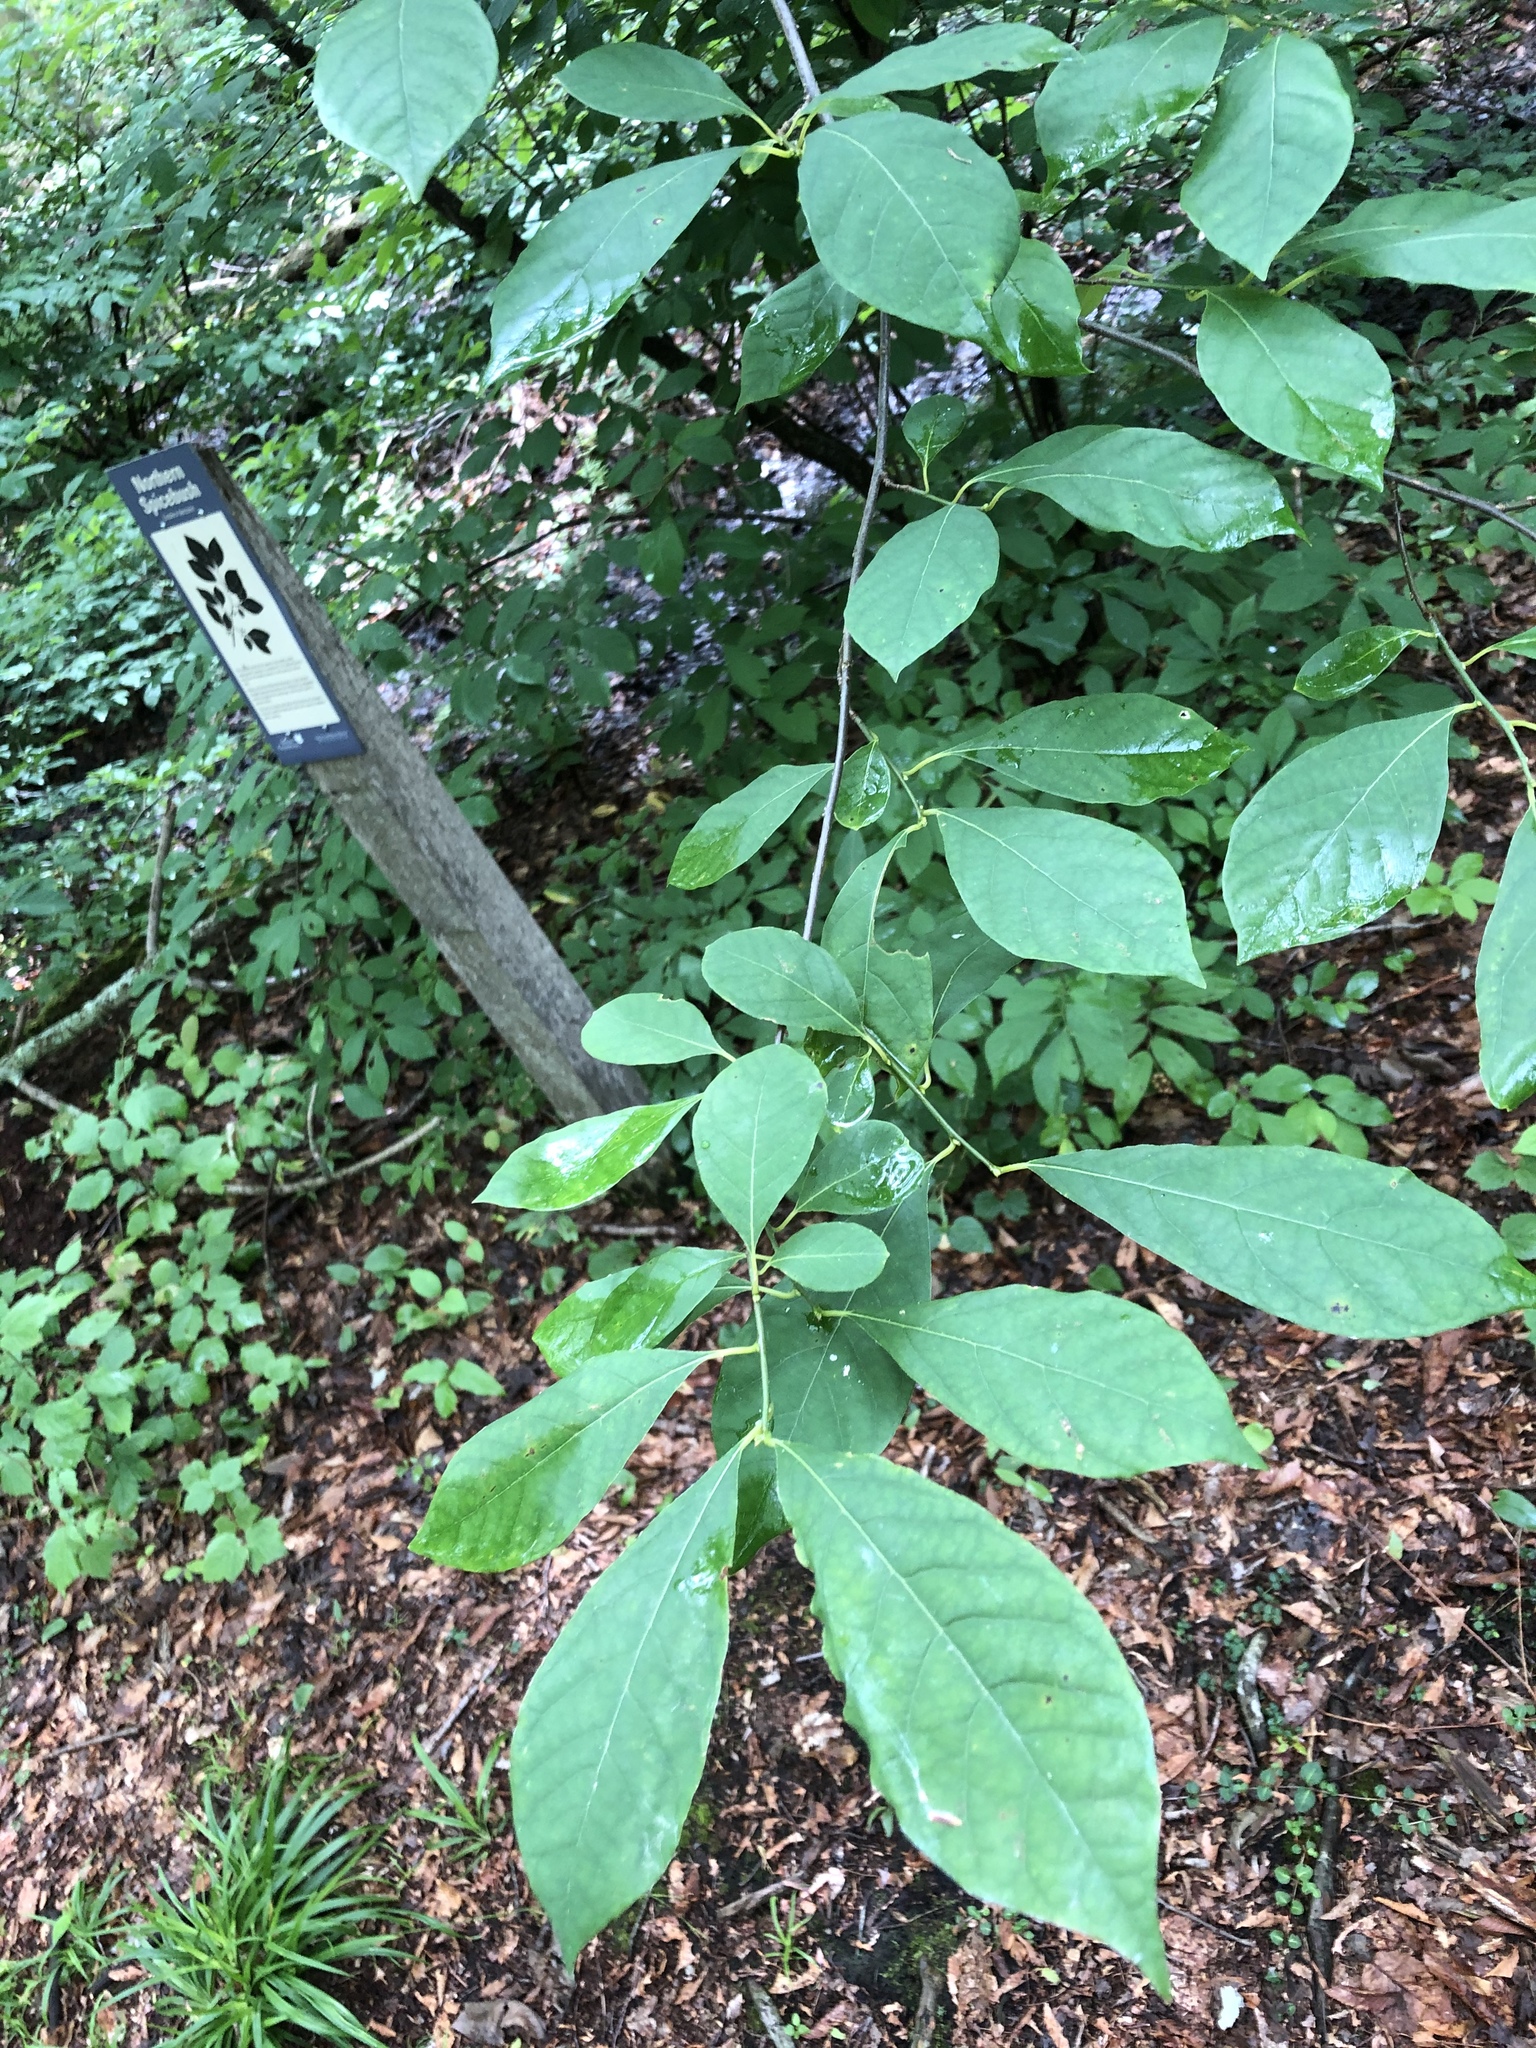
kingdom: Plantae
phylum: Tracheophyta
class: Magnoliopsida
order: Laurales
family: Lauraceae
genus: Lindera
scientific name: Lindera benzoin
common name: Spicebush
